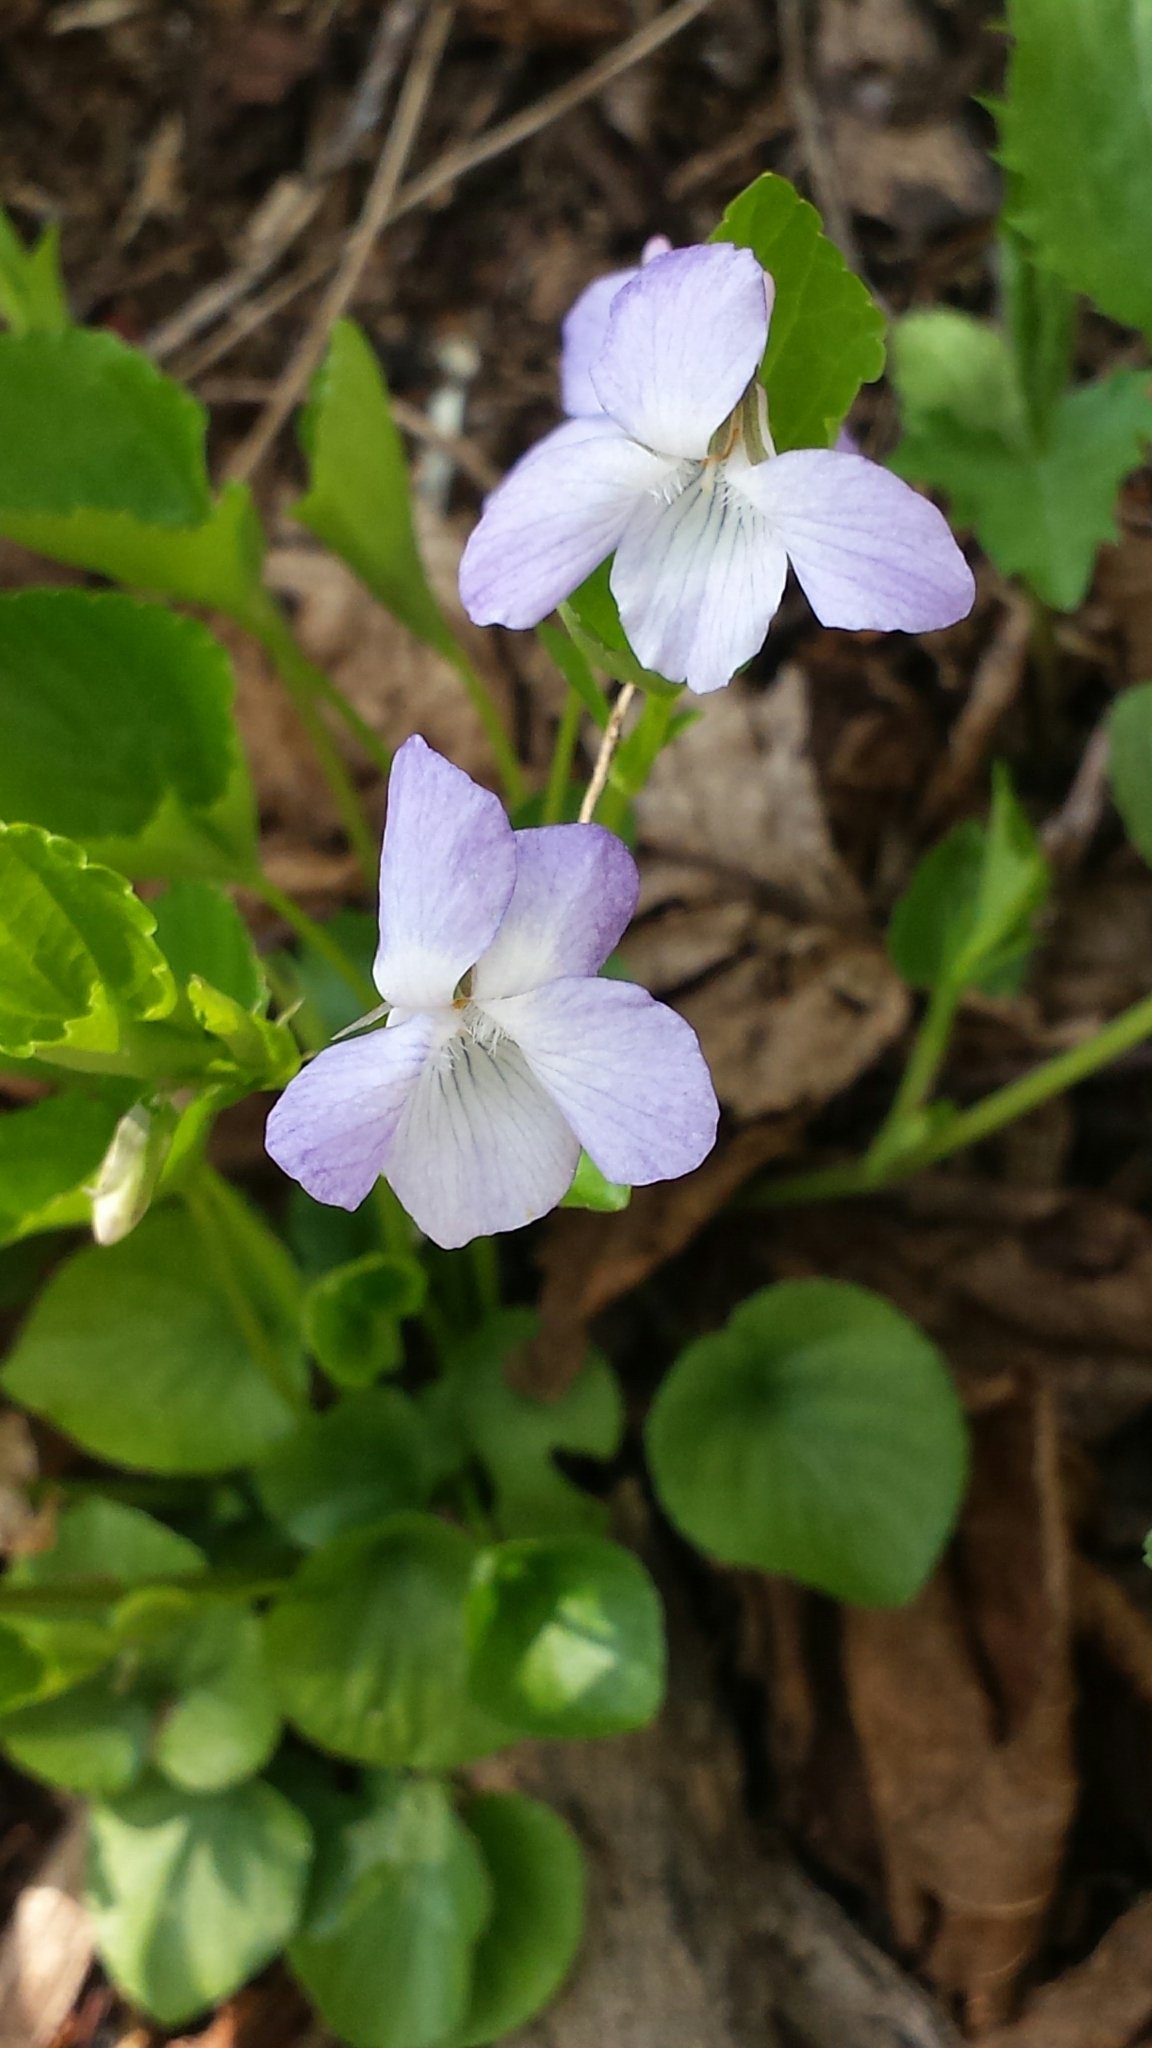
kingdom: Plantae
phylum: Tracheophyta
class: Magnoliopsida
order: Malpighiales
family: Violaceae
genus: Viola
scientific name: Viola labradorica
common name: Labrador violet
